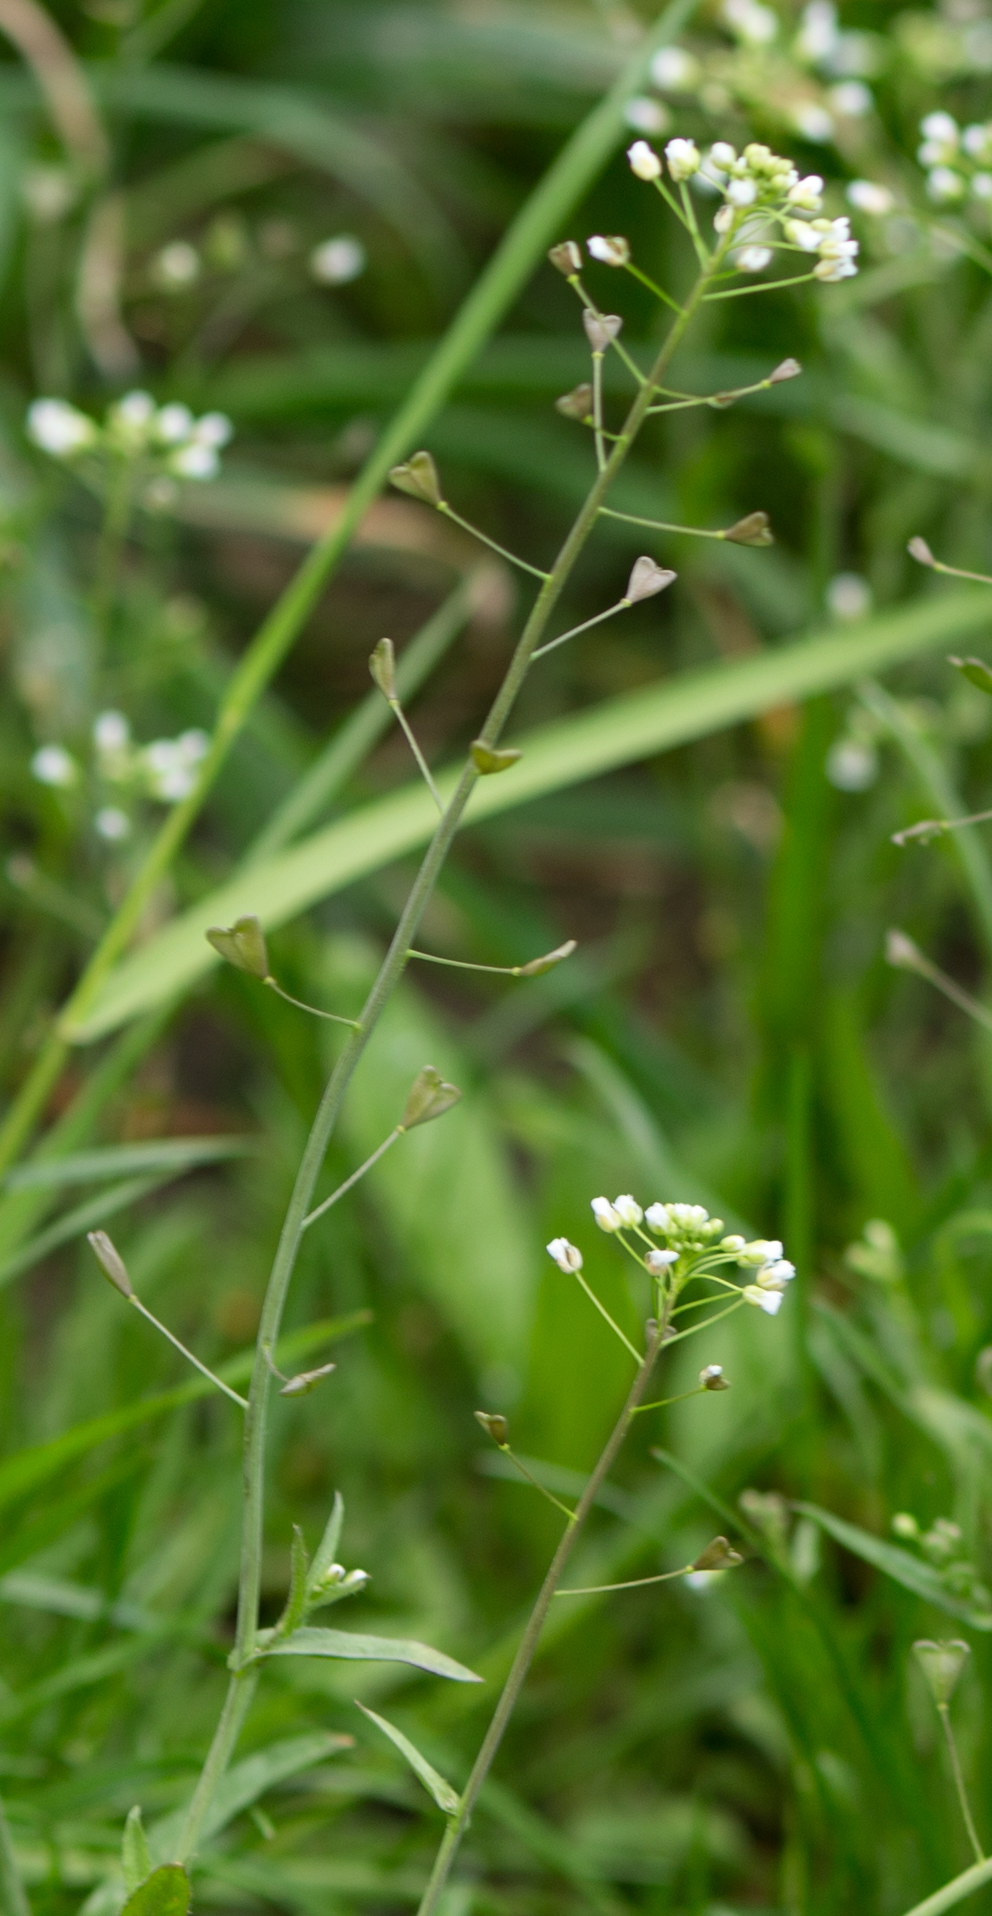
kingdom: Plantae
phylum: Tracheophyta
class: Magnoliopsida
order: Brassicales
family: Brassicaceae
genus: Capsella
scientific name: Capsella bursa-pastoris
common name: Shepherd's purse
